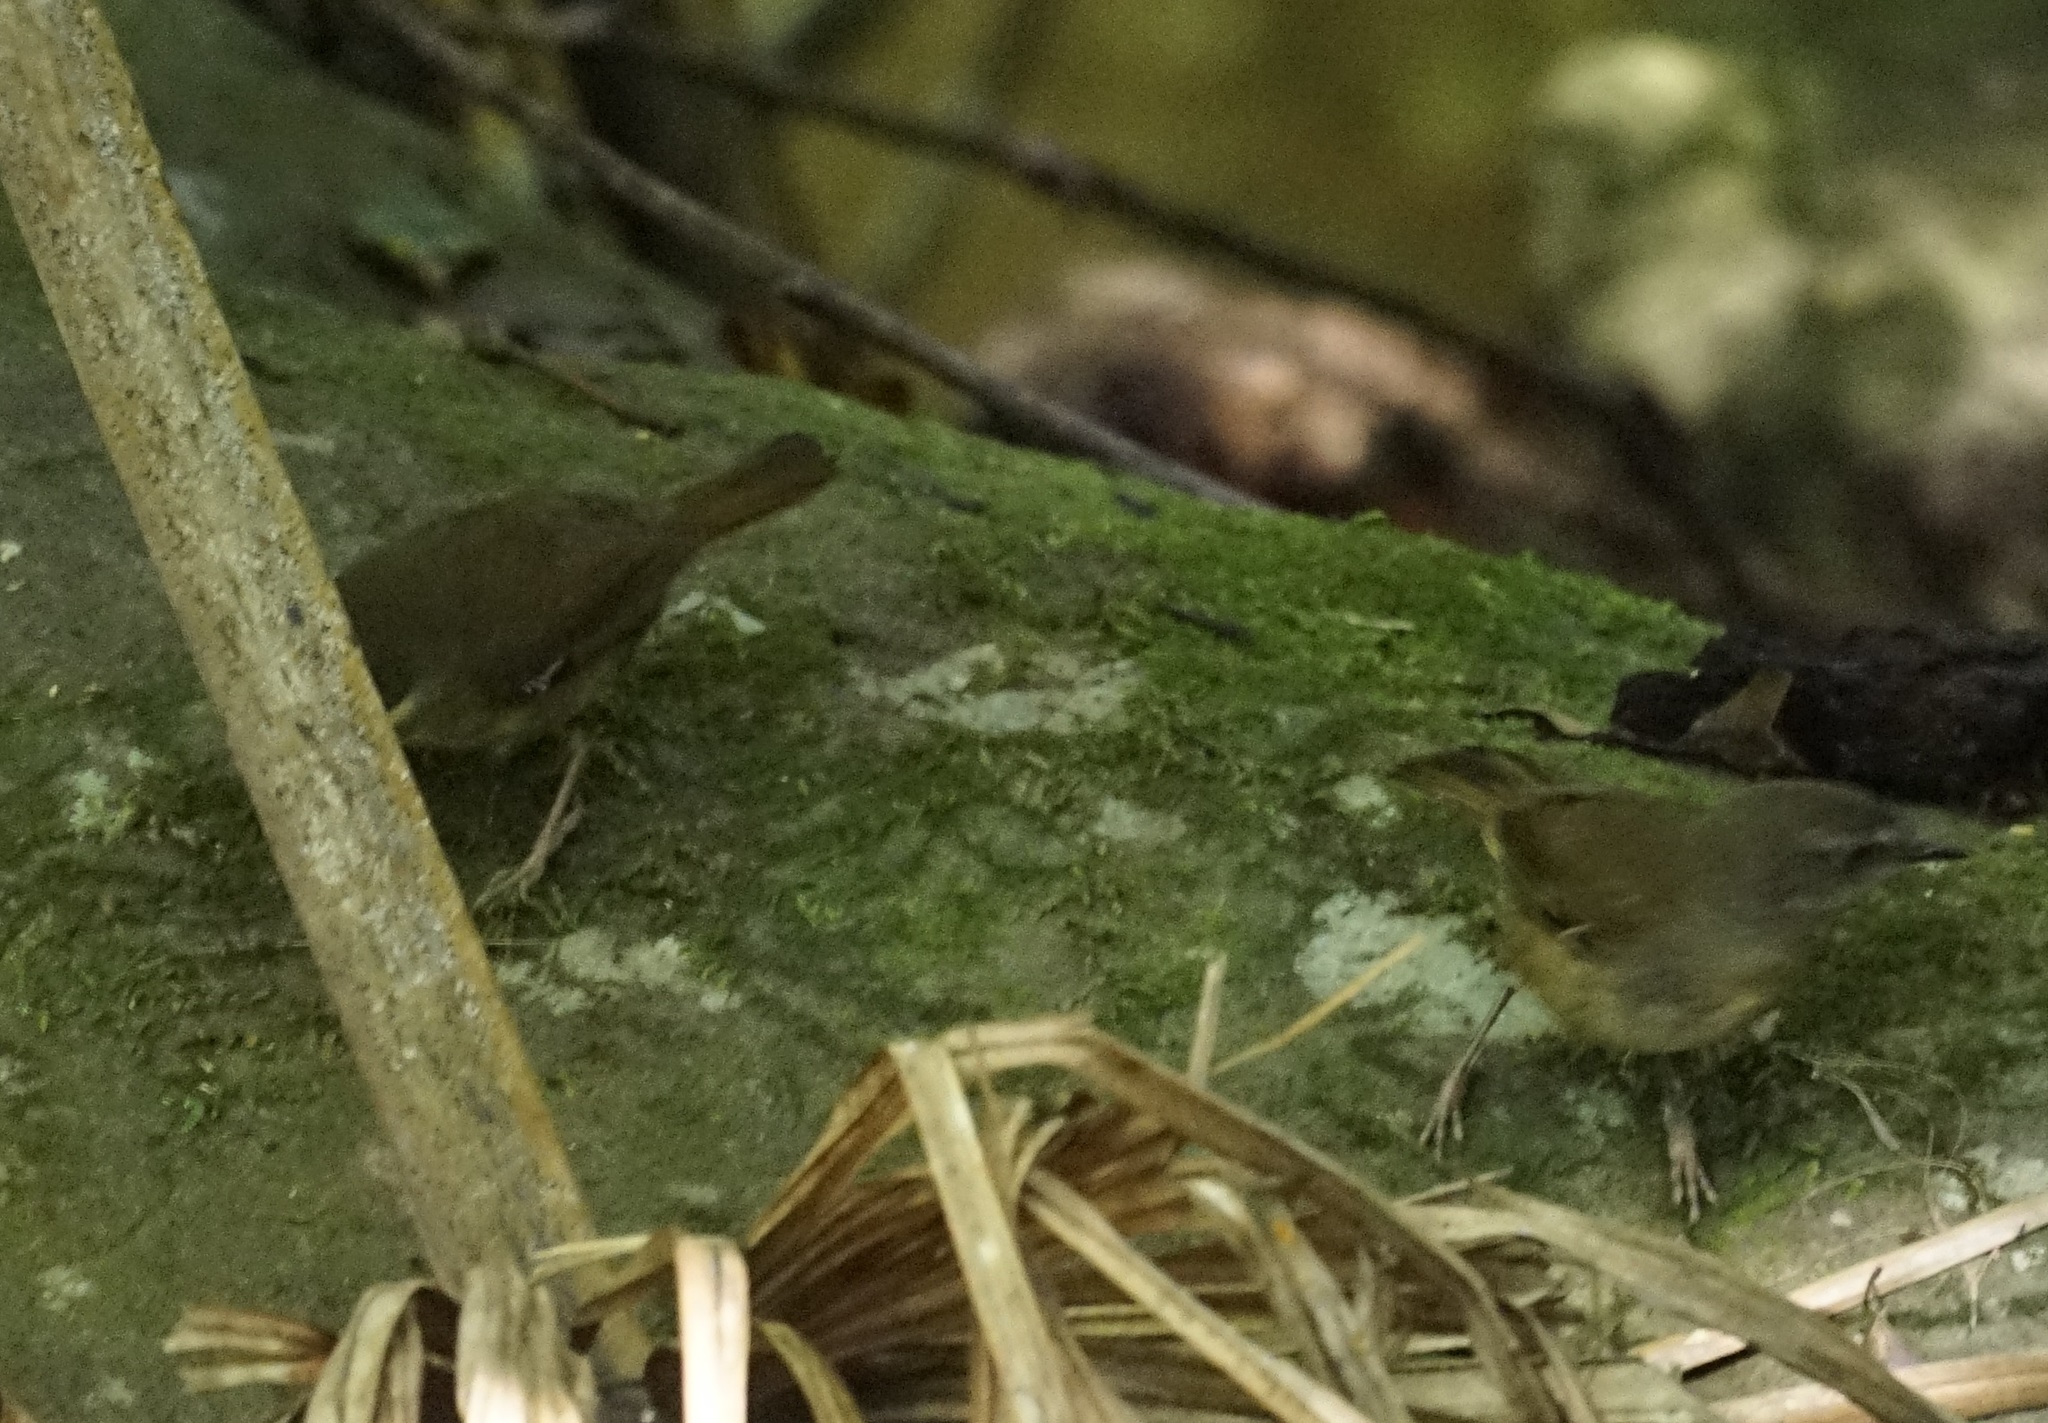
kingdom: Animalia
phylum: Chordata
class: Aves
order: Passeriformes
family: Acanthizidae
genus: Sericornis
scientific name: Sericornis frontalis
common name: White-browed scrubwren
